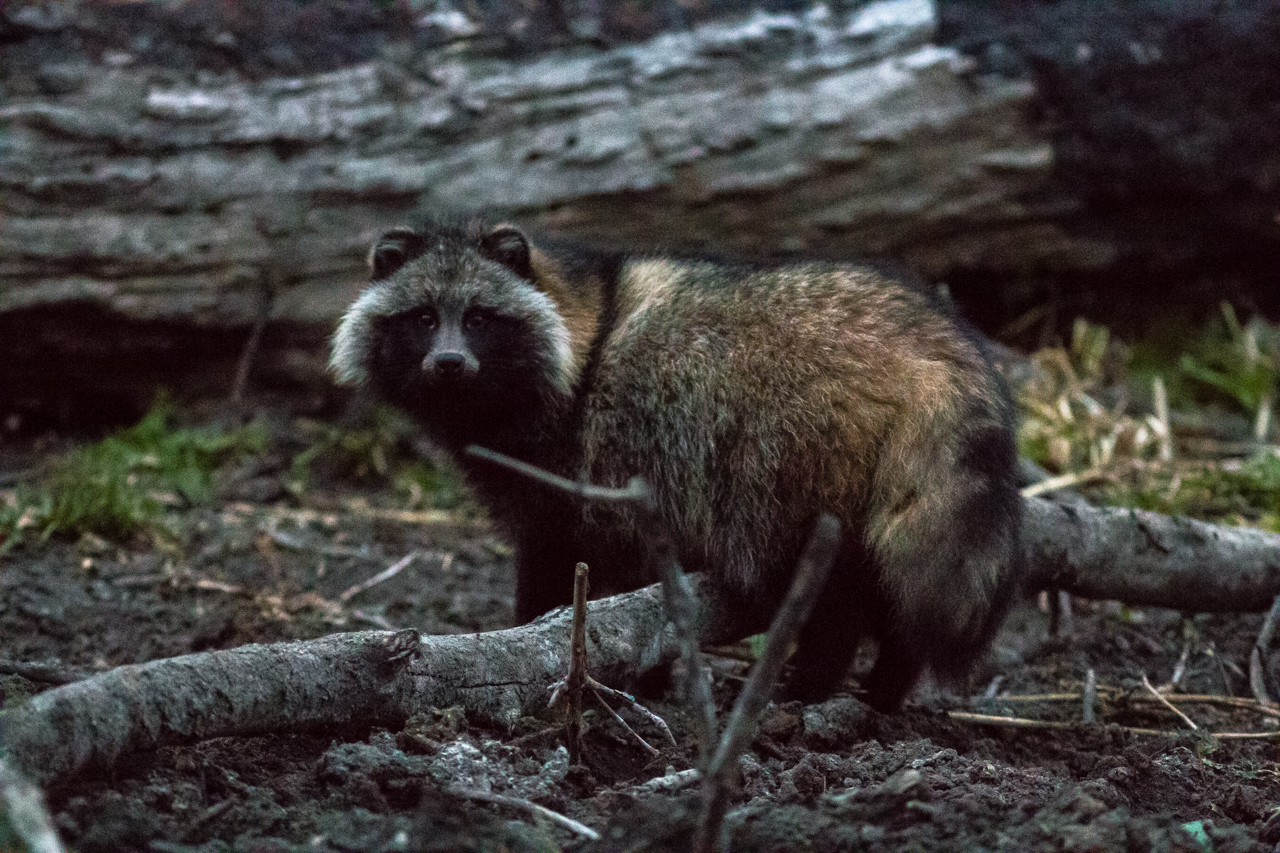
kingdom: Animalia
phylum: Chordata
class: Mammalia
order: Carnivora
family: Canidae
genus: Nyctereutes
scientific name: Nyctereutes procyonoides
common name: Raccoon dog
